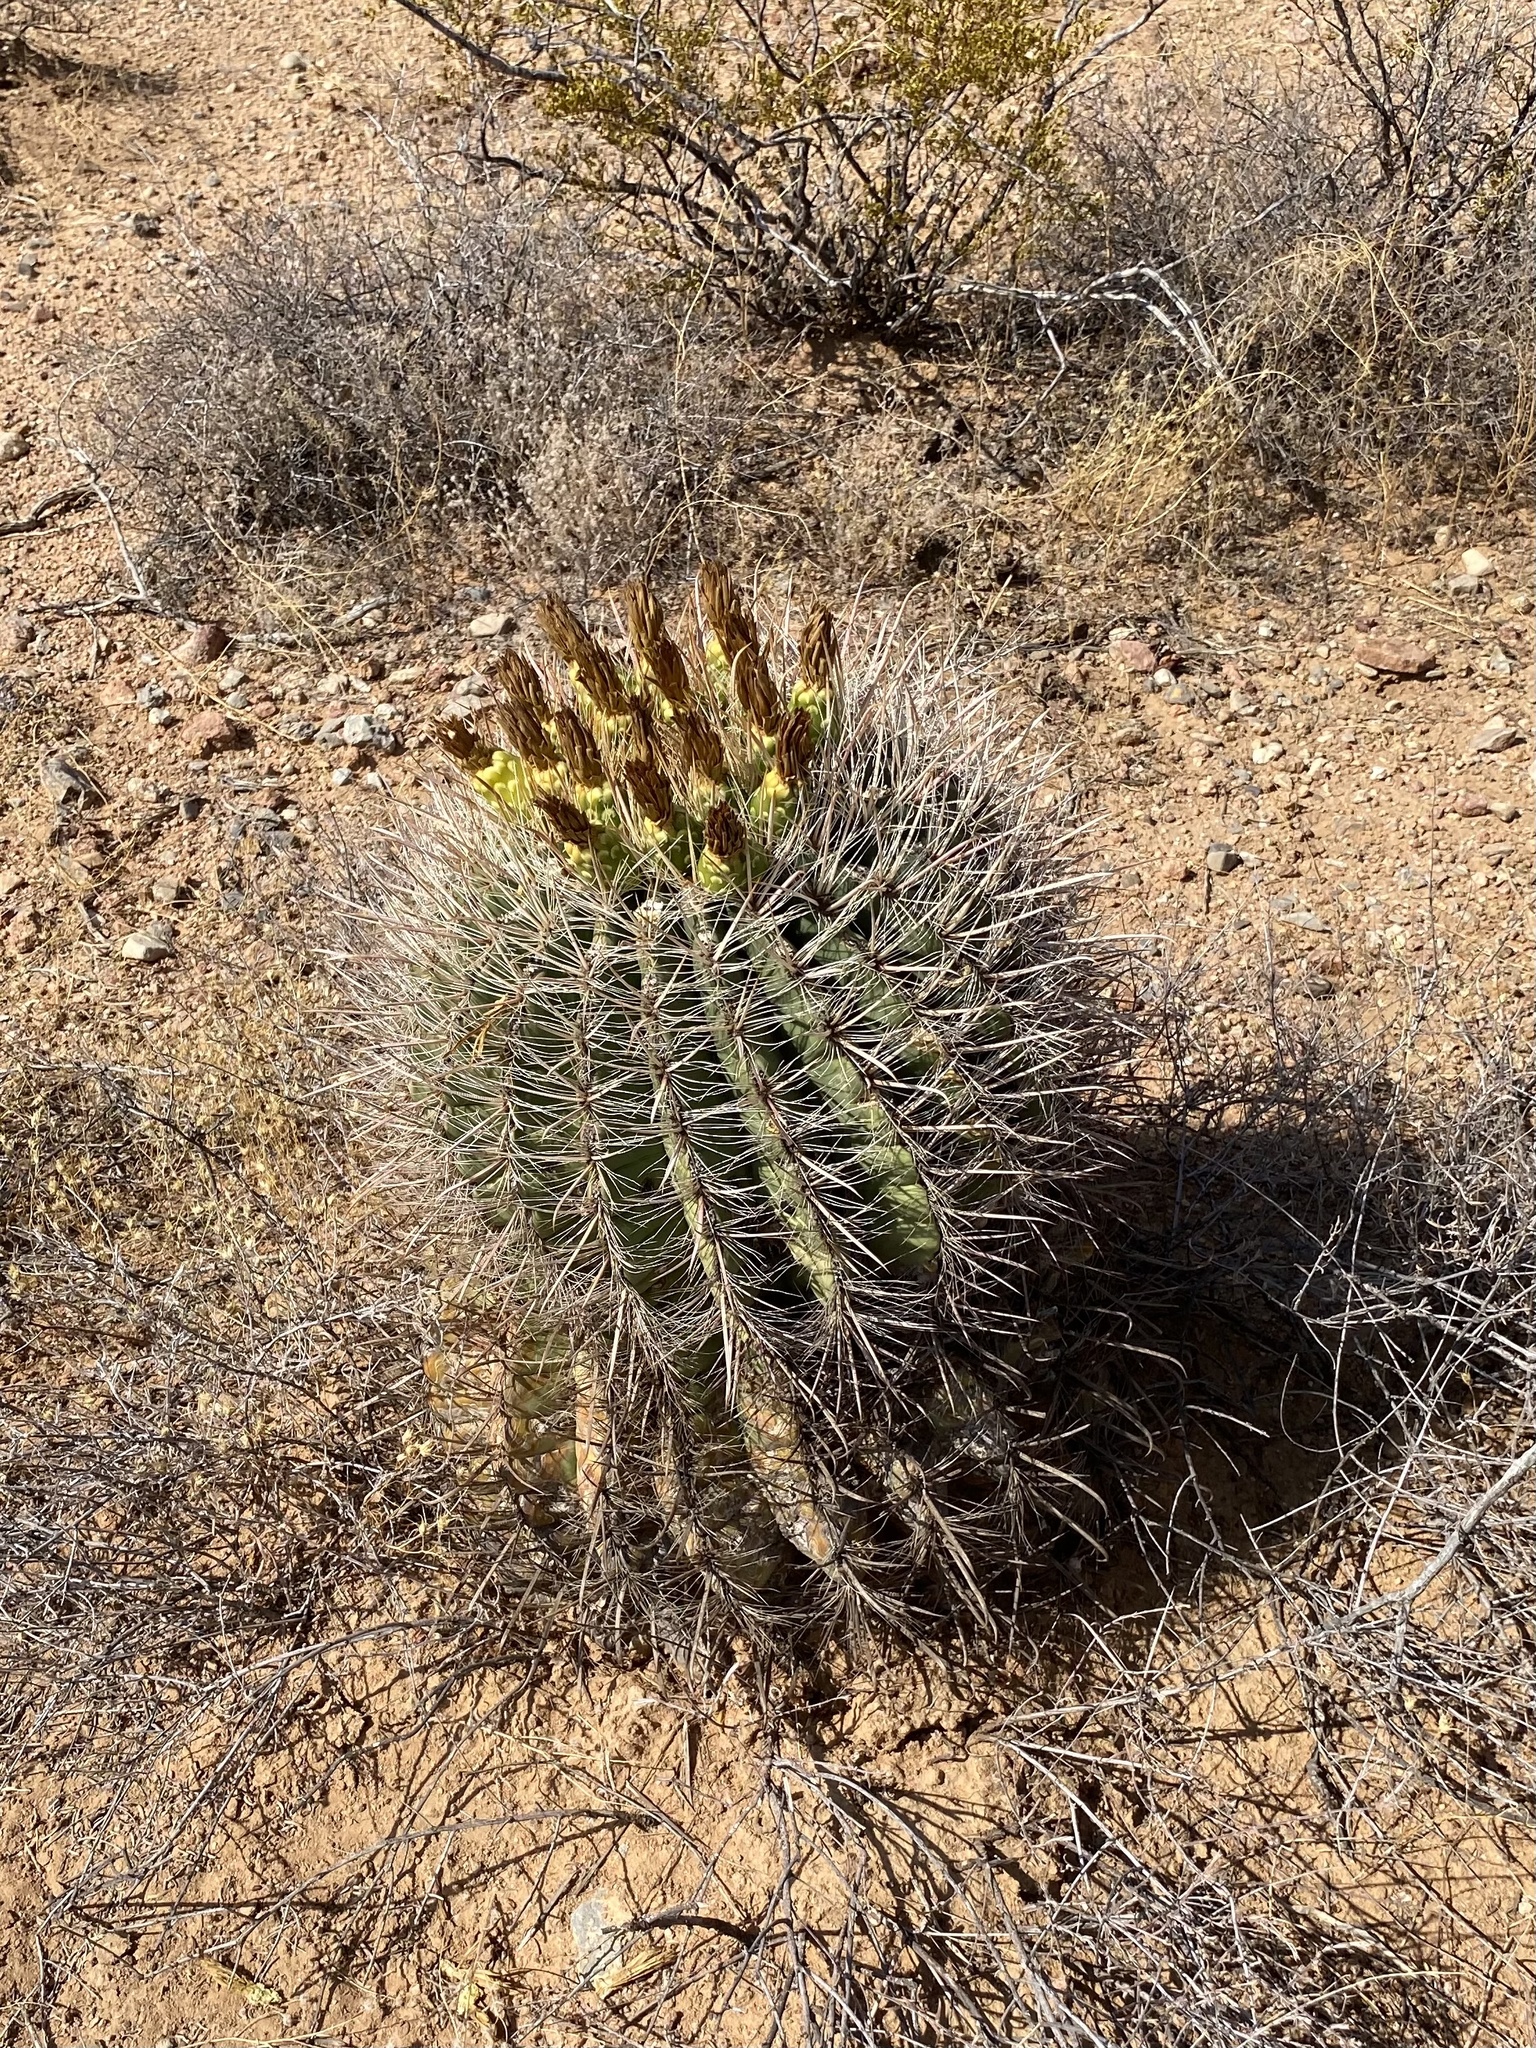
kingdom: Plantae
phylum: Tracheophyta
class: Magnoliopsida
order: Caryophyllales
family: Cactaceae
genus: Ferocactus
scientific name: Ferocactus wislizeni
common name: Candy barrel cactus
